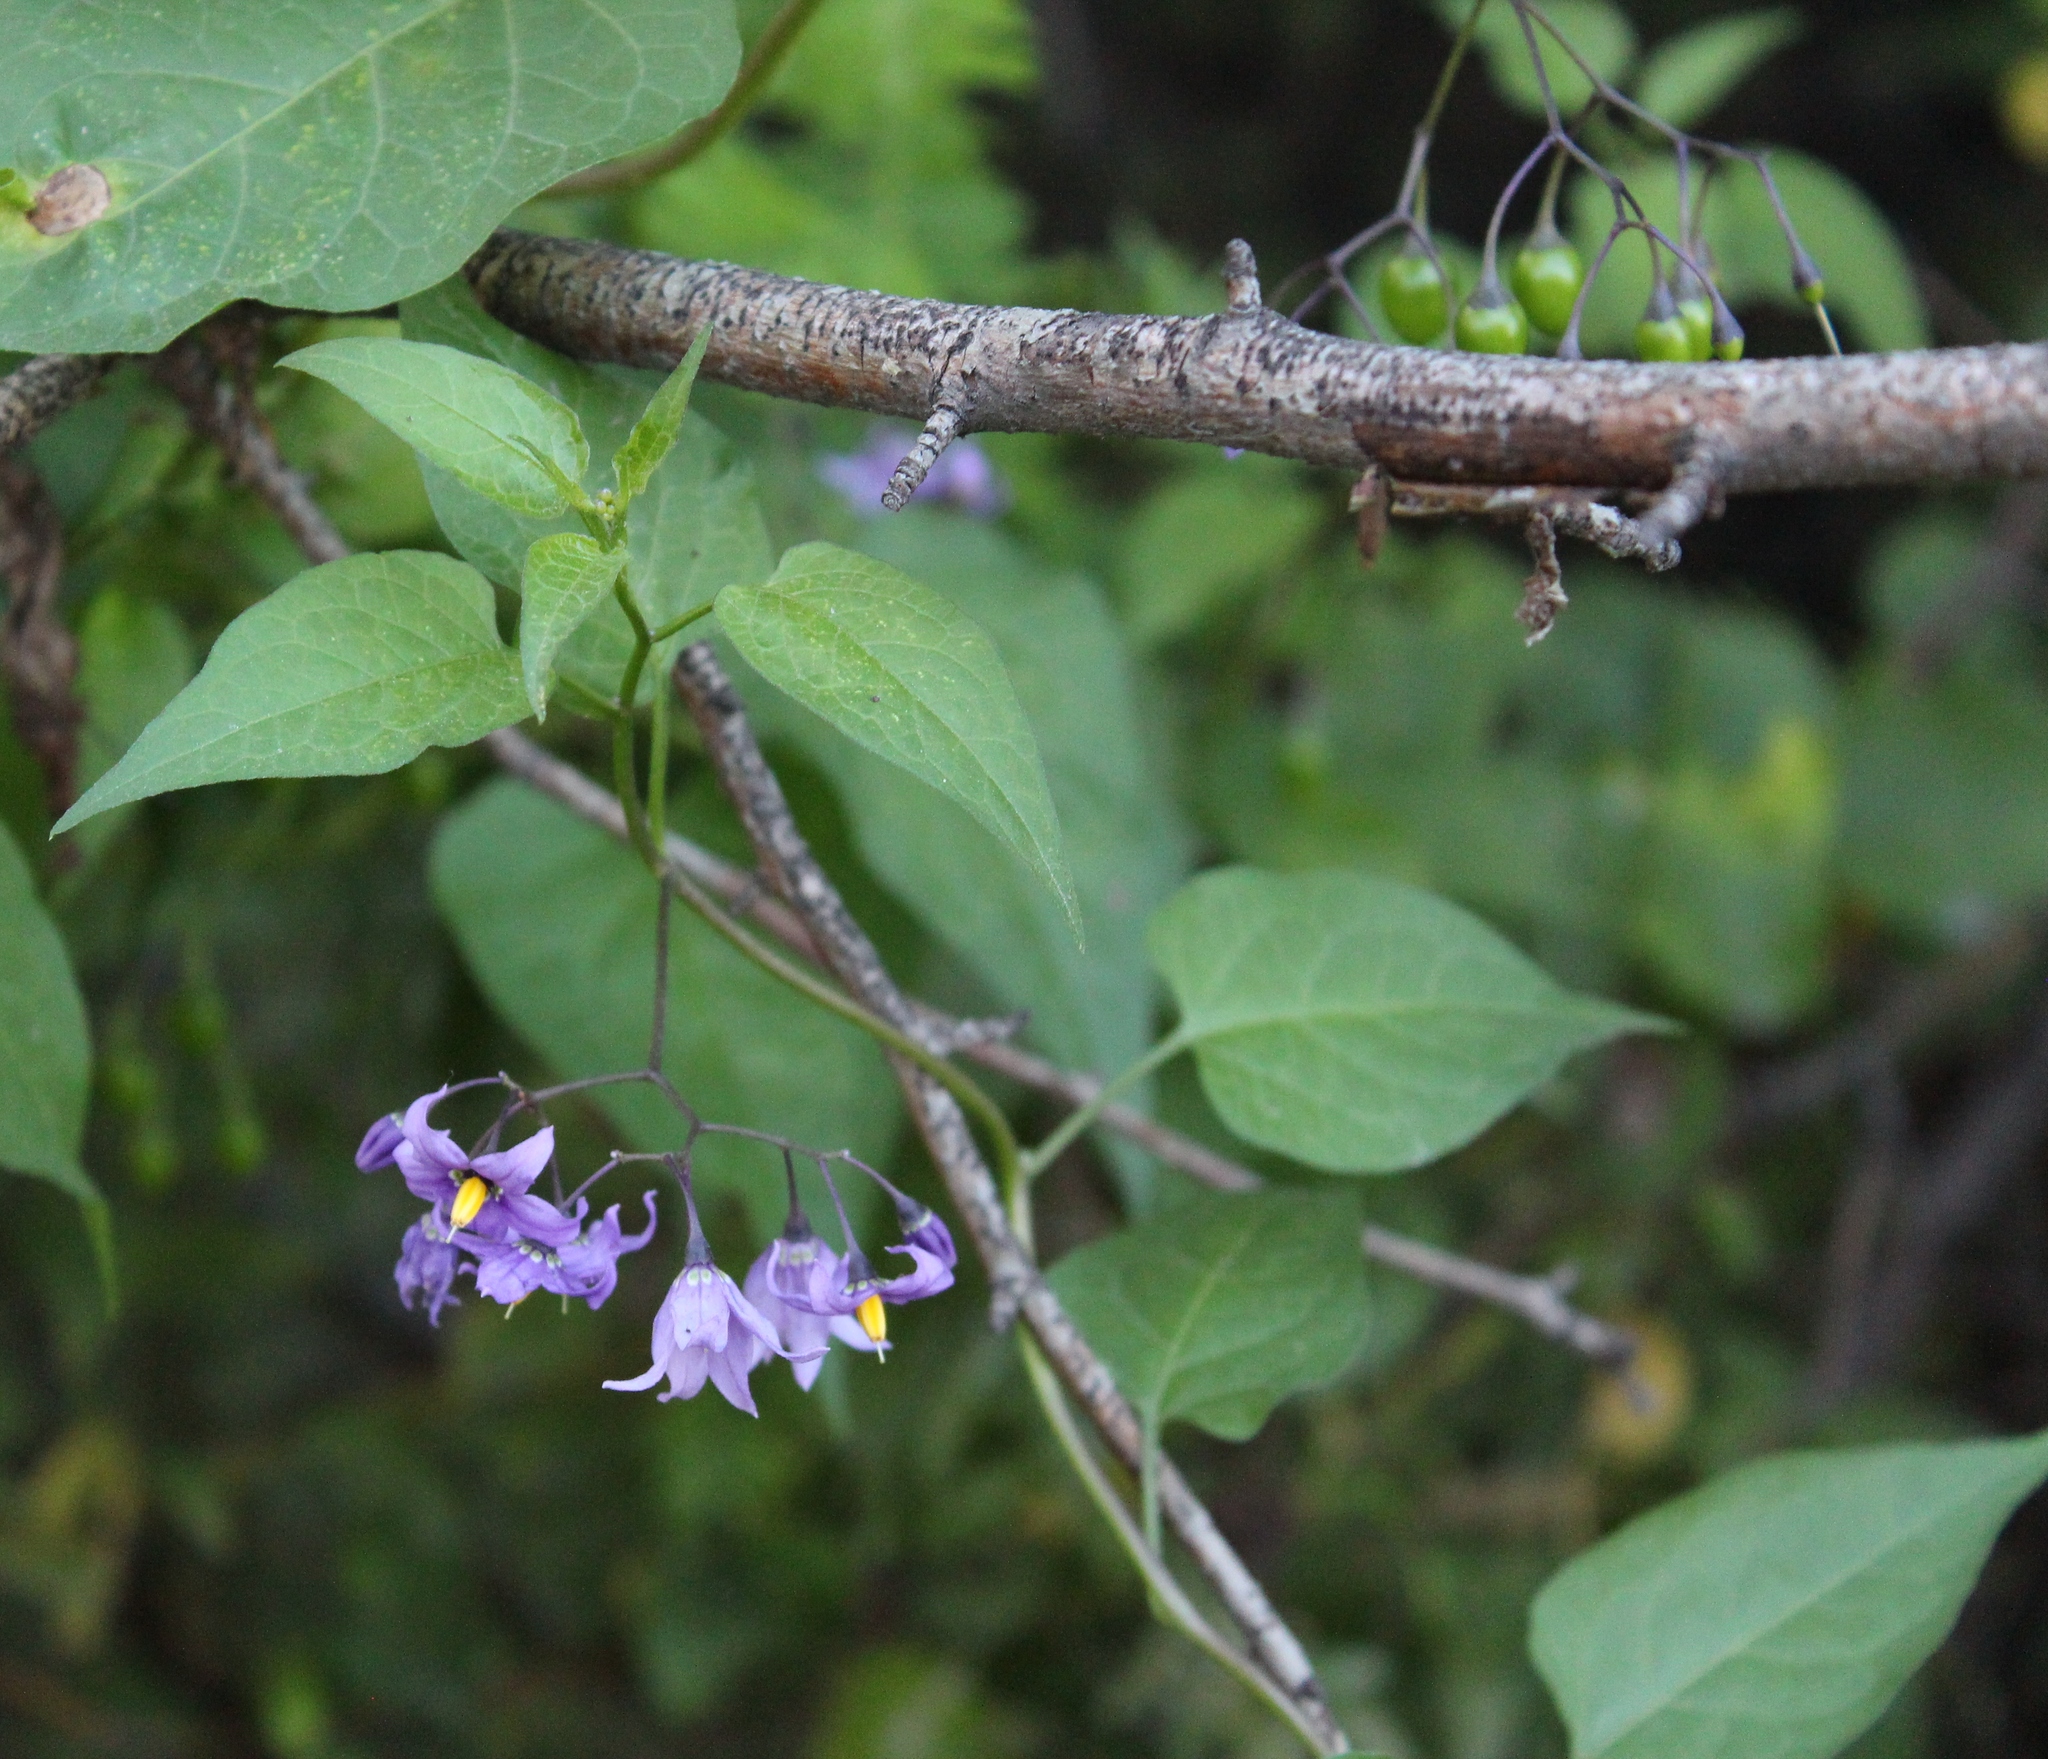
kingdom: Plantae
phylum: Tracheophyta
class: Magnoliopsida
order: Solanales
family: Solanaceae
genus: Solanum
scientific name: Solanum dulcamara
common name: Climbing nightshade
